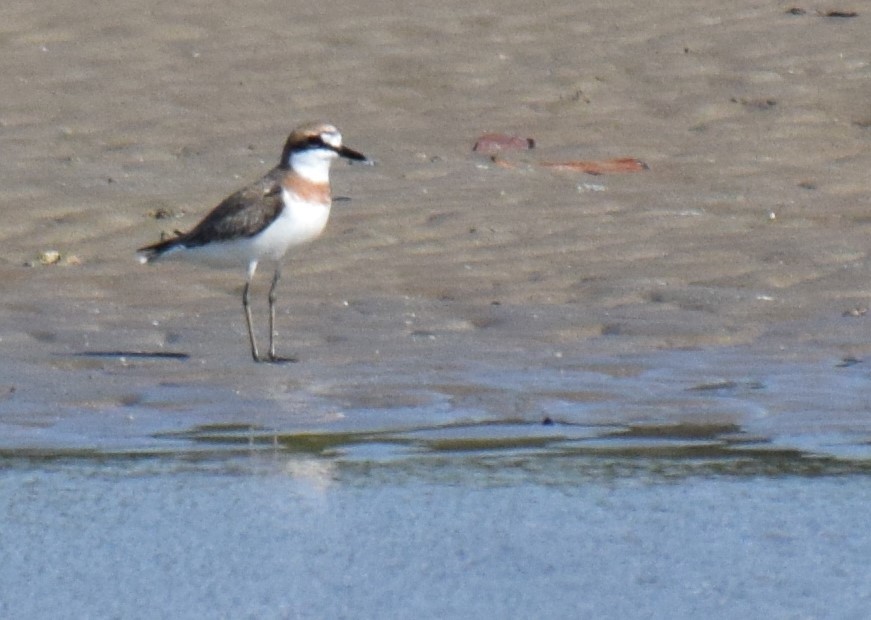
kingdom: Animalia
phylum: Chordata
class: Aves
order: Charadriiformes
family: Charadriidae
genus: Charadrius
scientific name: Charadrius leschenaultii
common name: Greater sand plover
